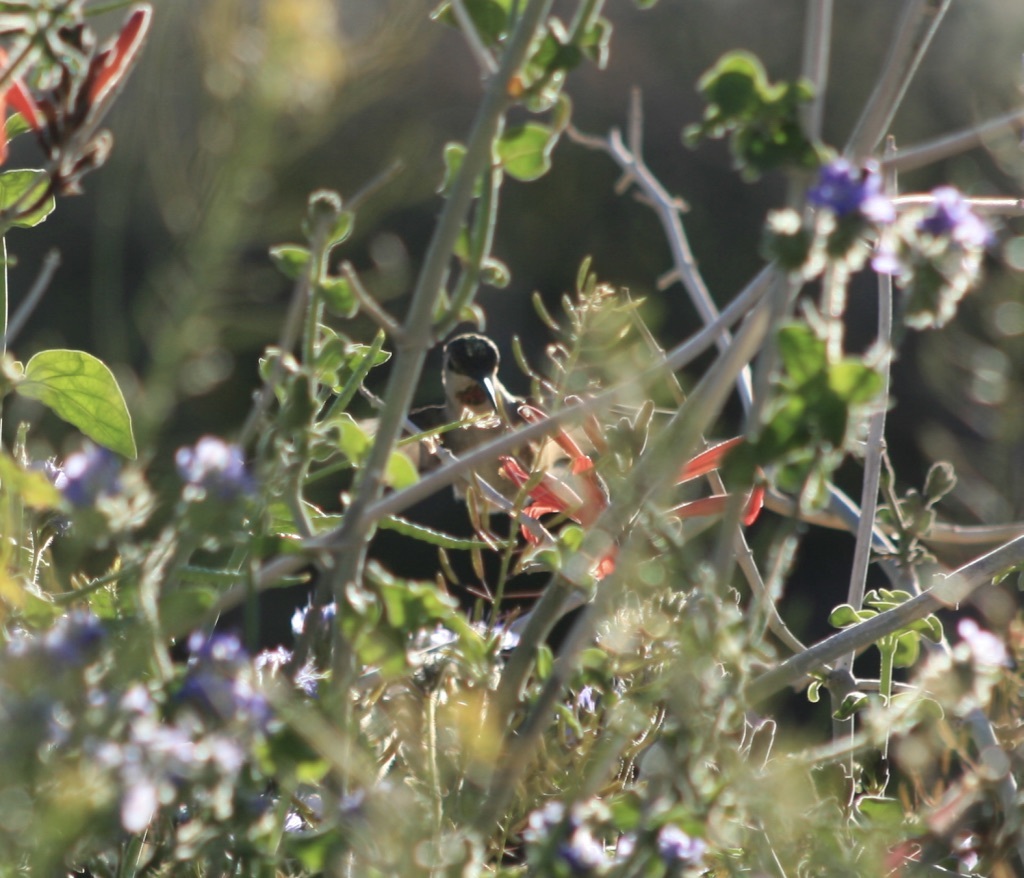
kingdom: Animalia
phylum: Chordata
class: Aves
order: Apodiformes
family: Trochilidae
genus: Calypte
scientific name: Calypte costae
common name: Costa's hummingbird
